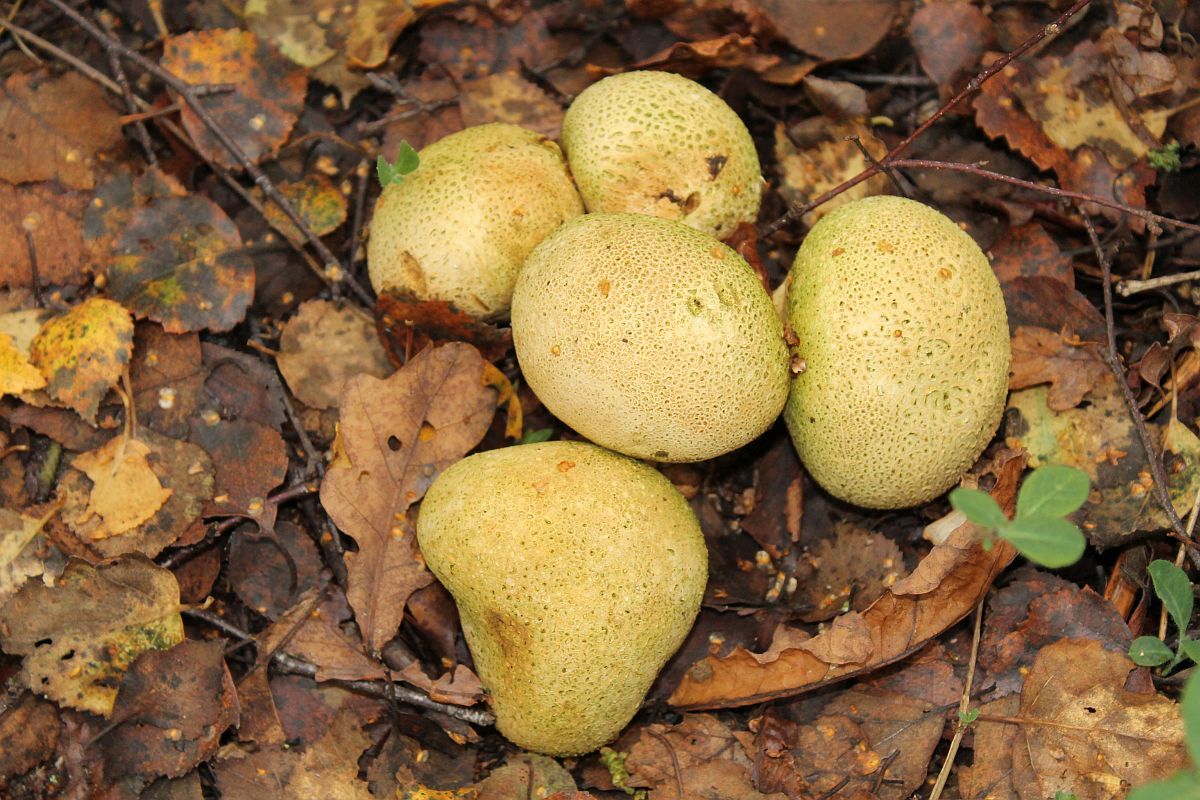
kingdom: Fungi
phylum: Basidiomycota
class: Agaricomycetes
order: Boletales
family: Sclerodermataceae
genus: Scleroderma
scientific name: Scleroderma citrinum
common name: Common earthball
